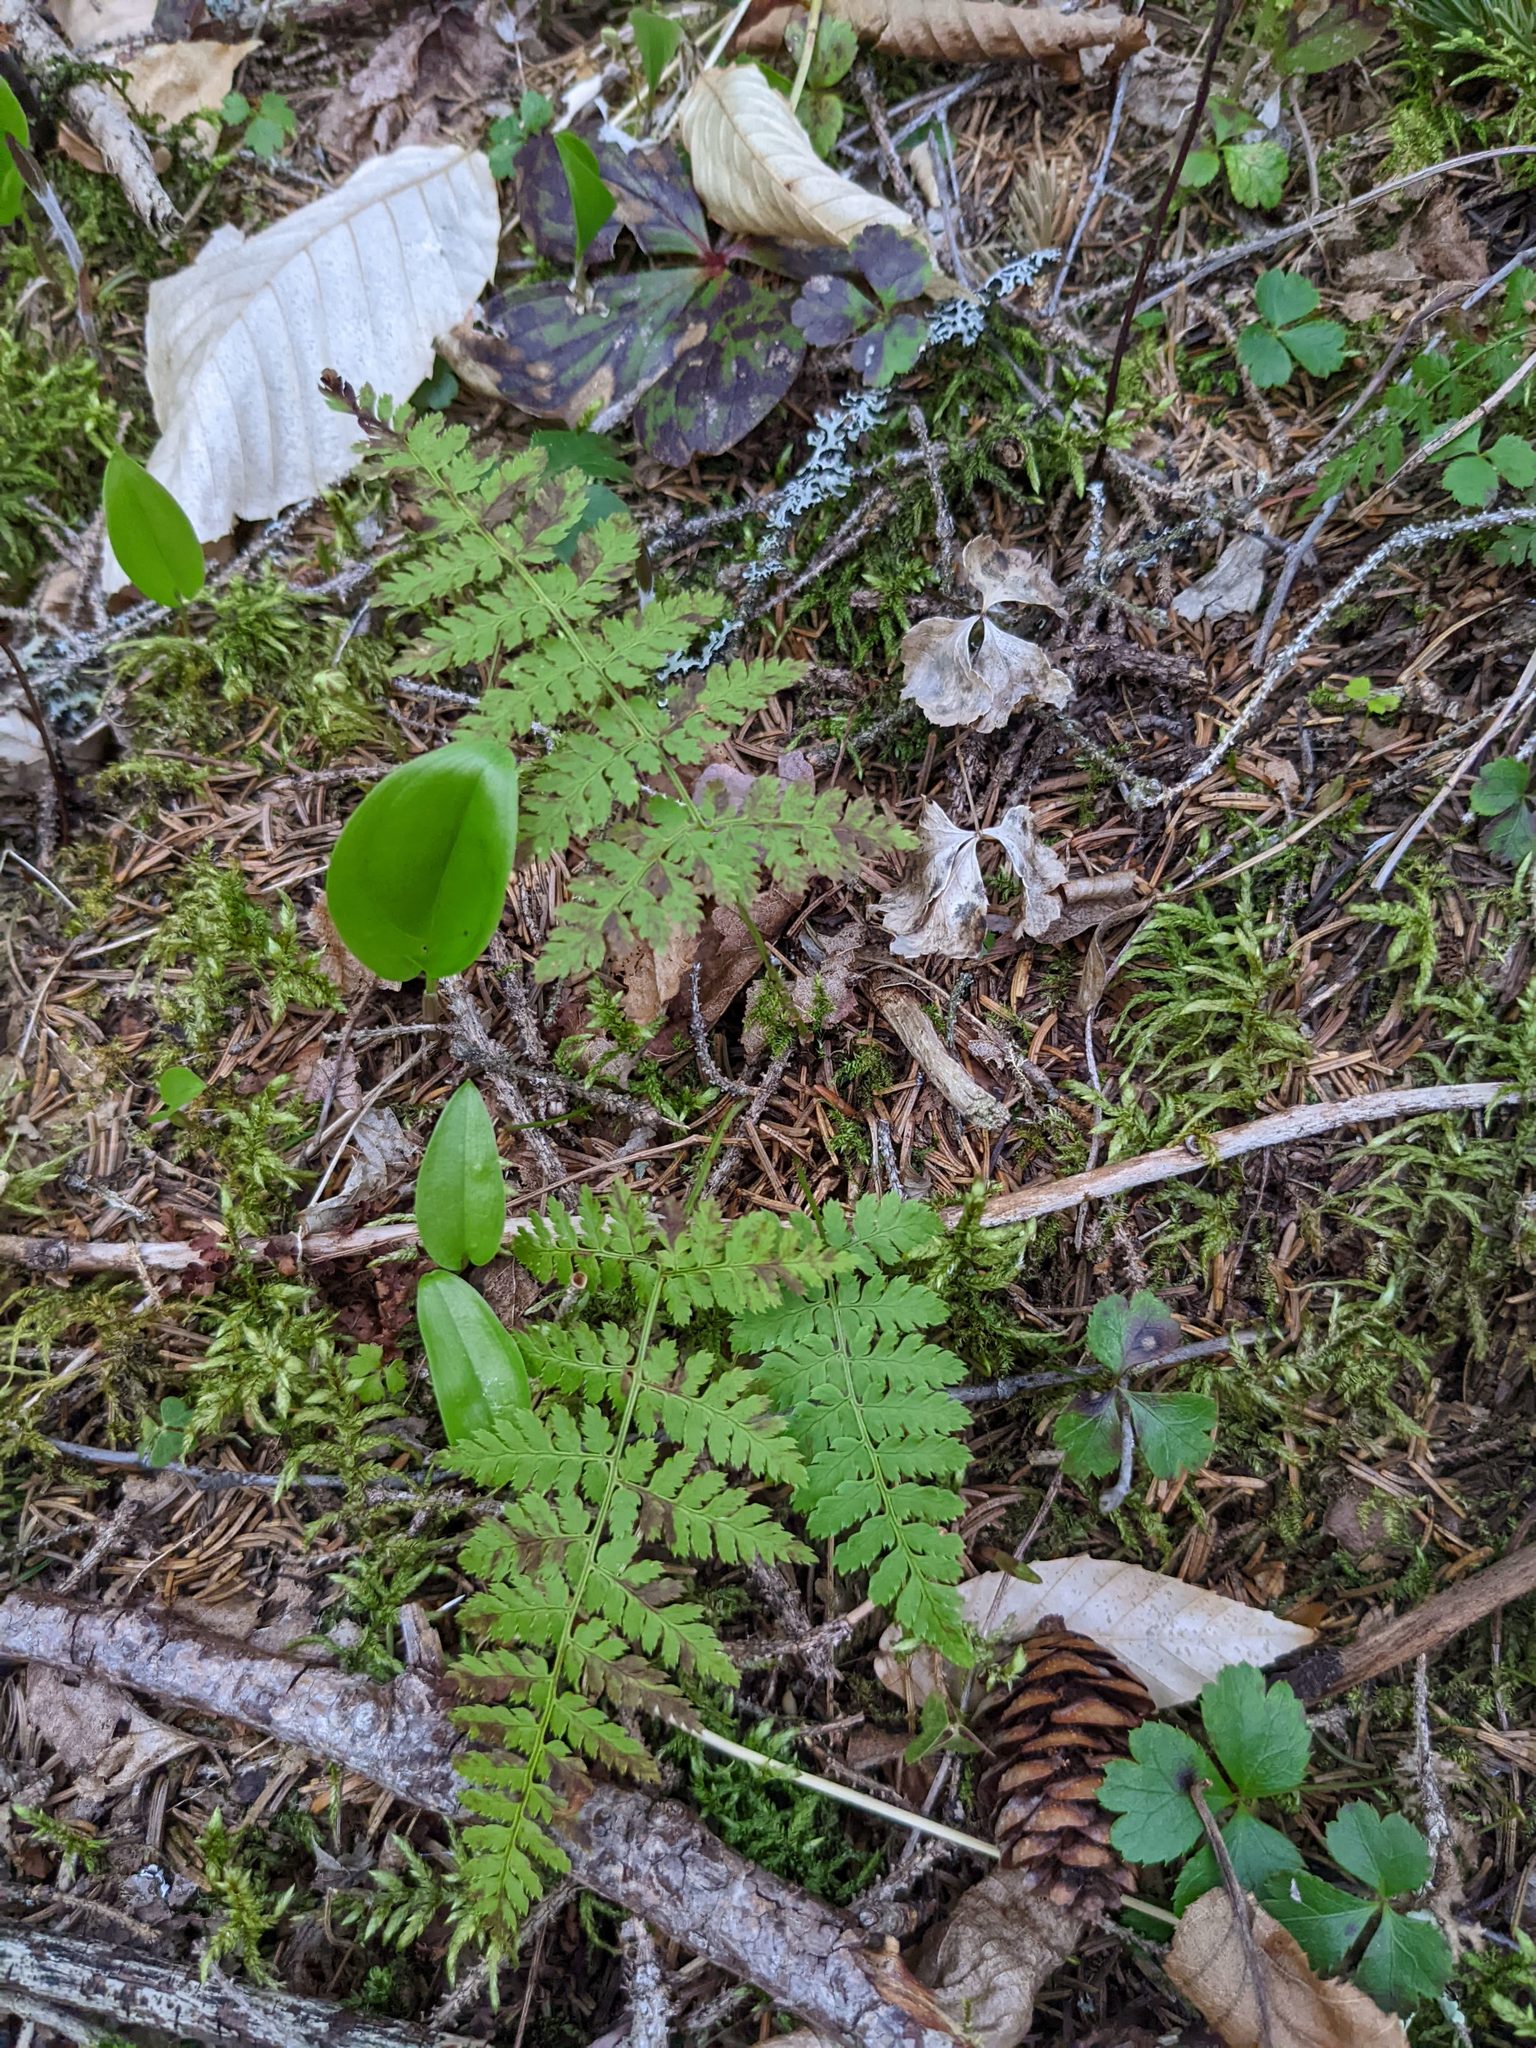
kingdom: Plantae
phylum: Tracheophyta
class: Polypodiopsida
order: Polypodiales
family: Dryopteridaceae
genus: Dryopteris
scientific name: Dryopteris intermedia
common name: Evergreen wood fern
